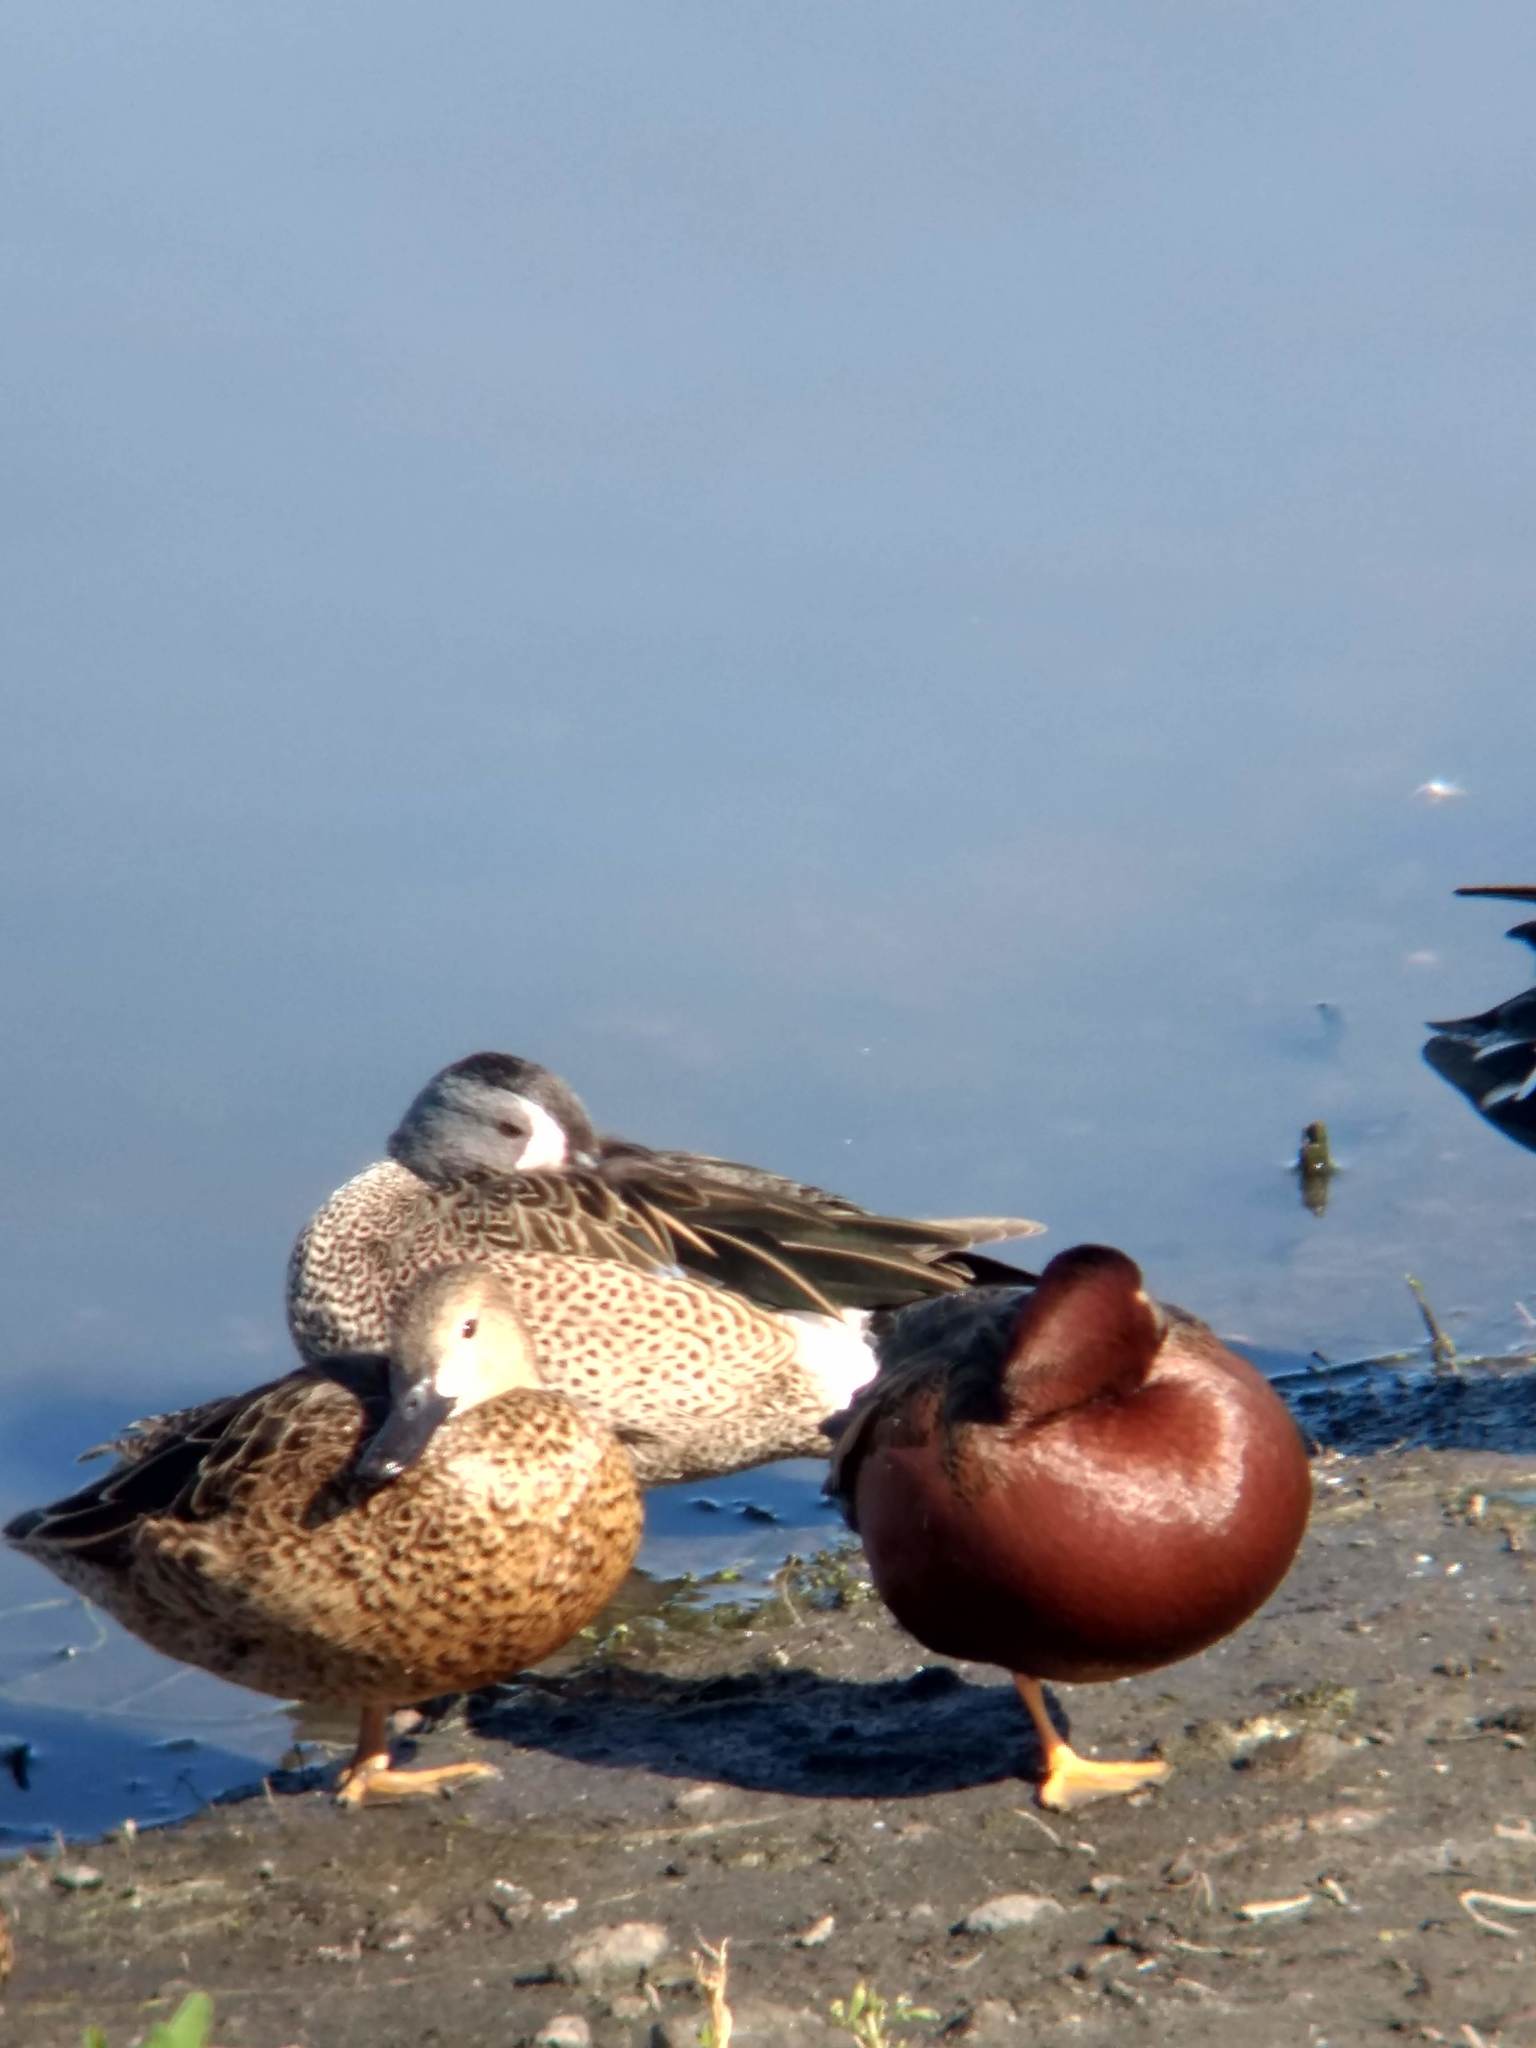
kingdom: Animalia
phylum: Chordata
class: Aves
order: Anseriformes
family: Anatidae
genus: Spatula
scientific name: Spatula discors
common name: Blue-winged teal
